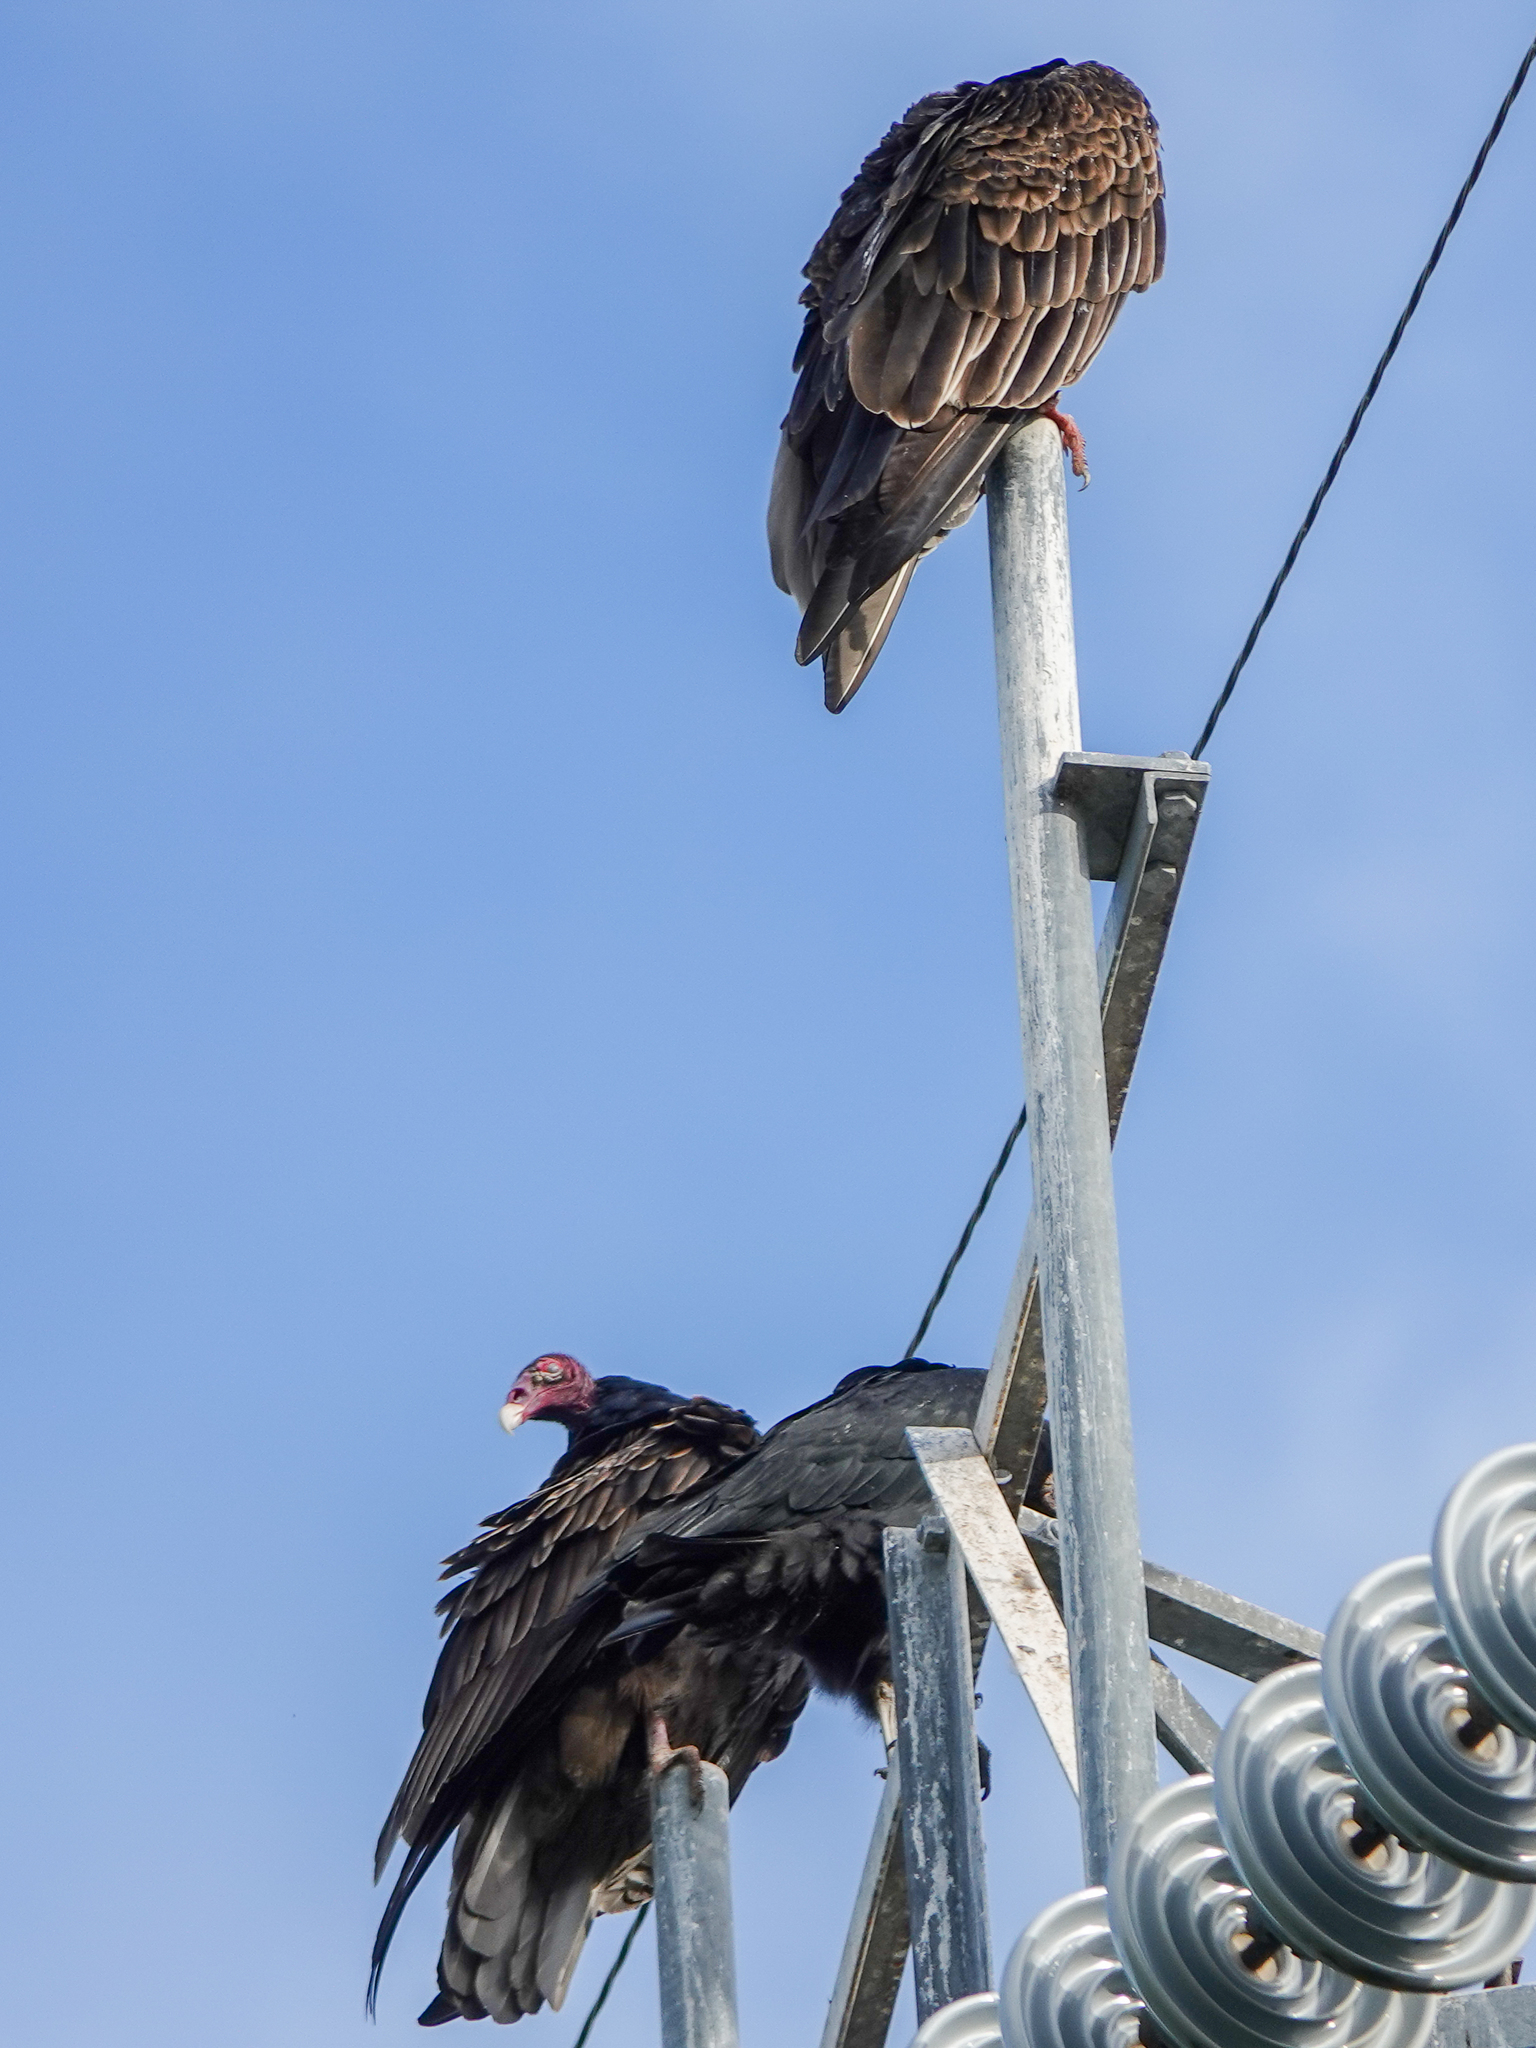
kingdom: Animalia
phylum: Chordata
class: Aves
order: Accipitriformes
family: Cathartidae
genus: Cathartes
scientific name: Cathartes aura
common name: Turkey vulture
